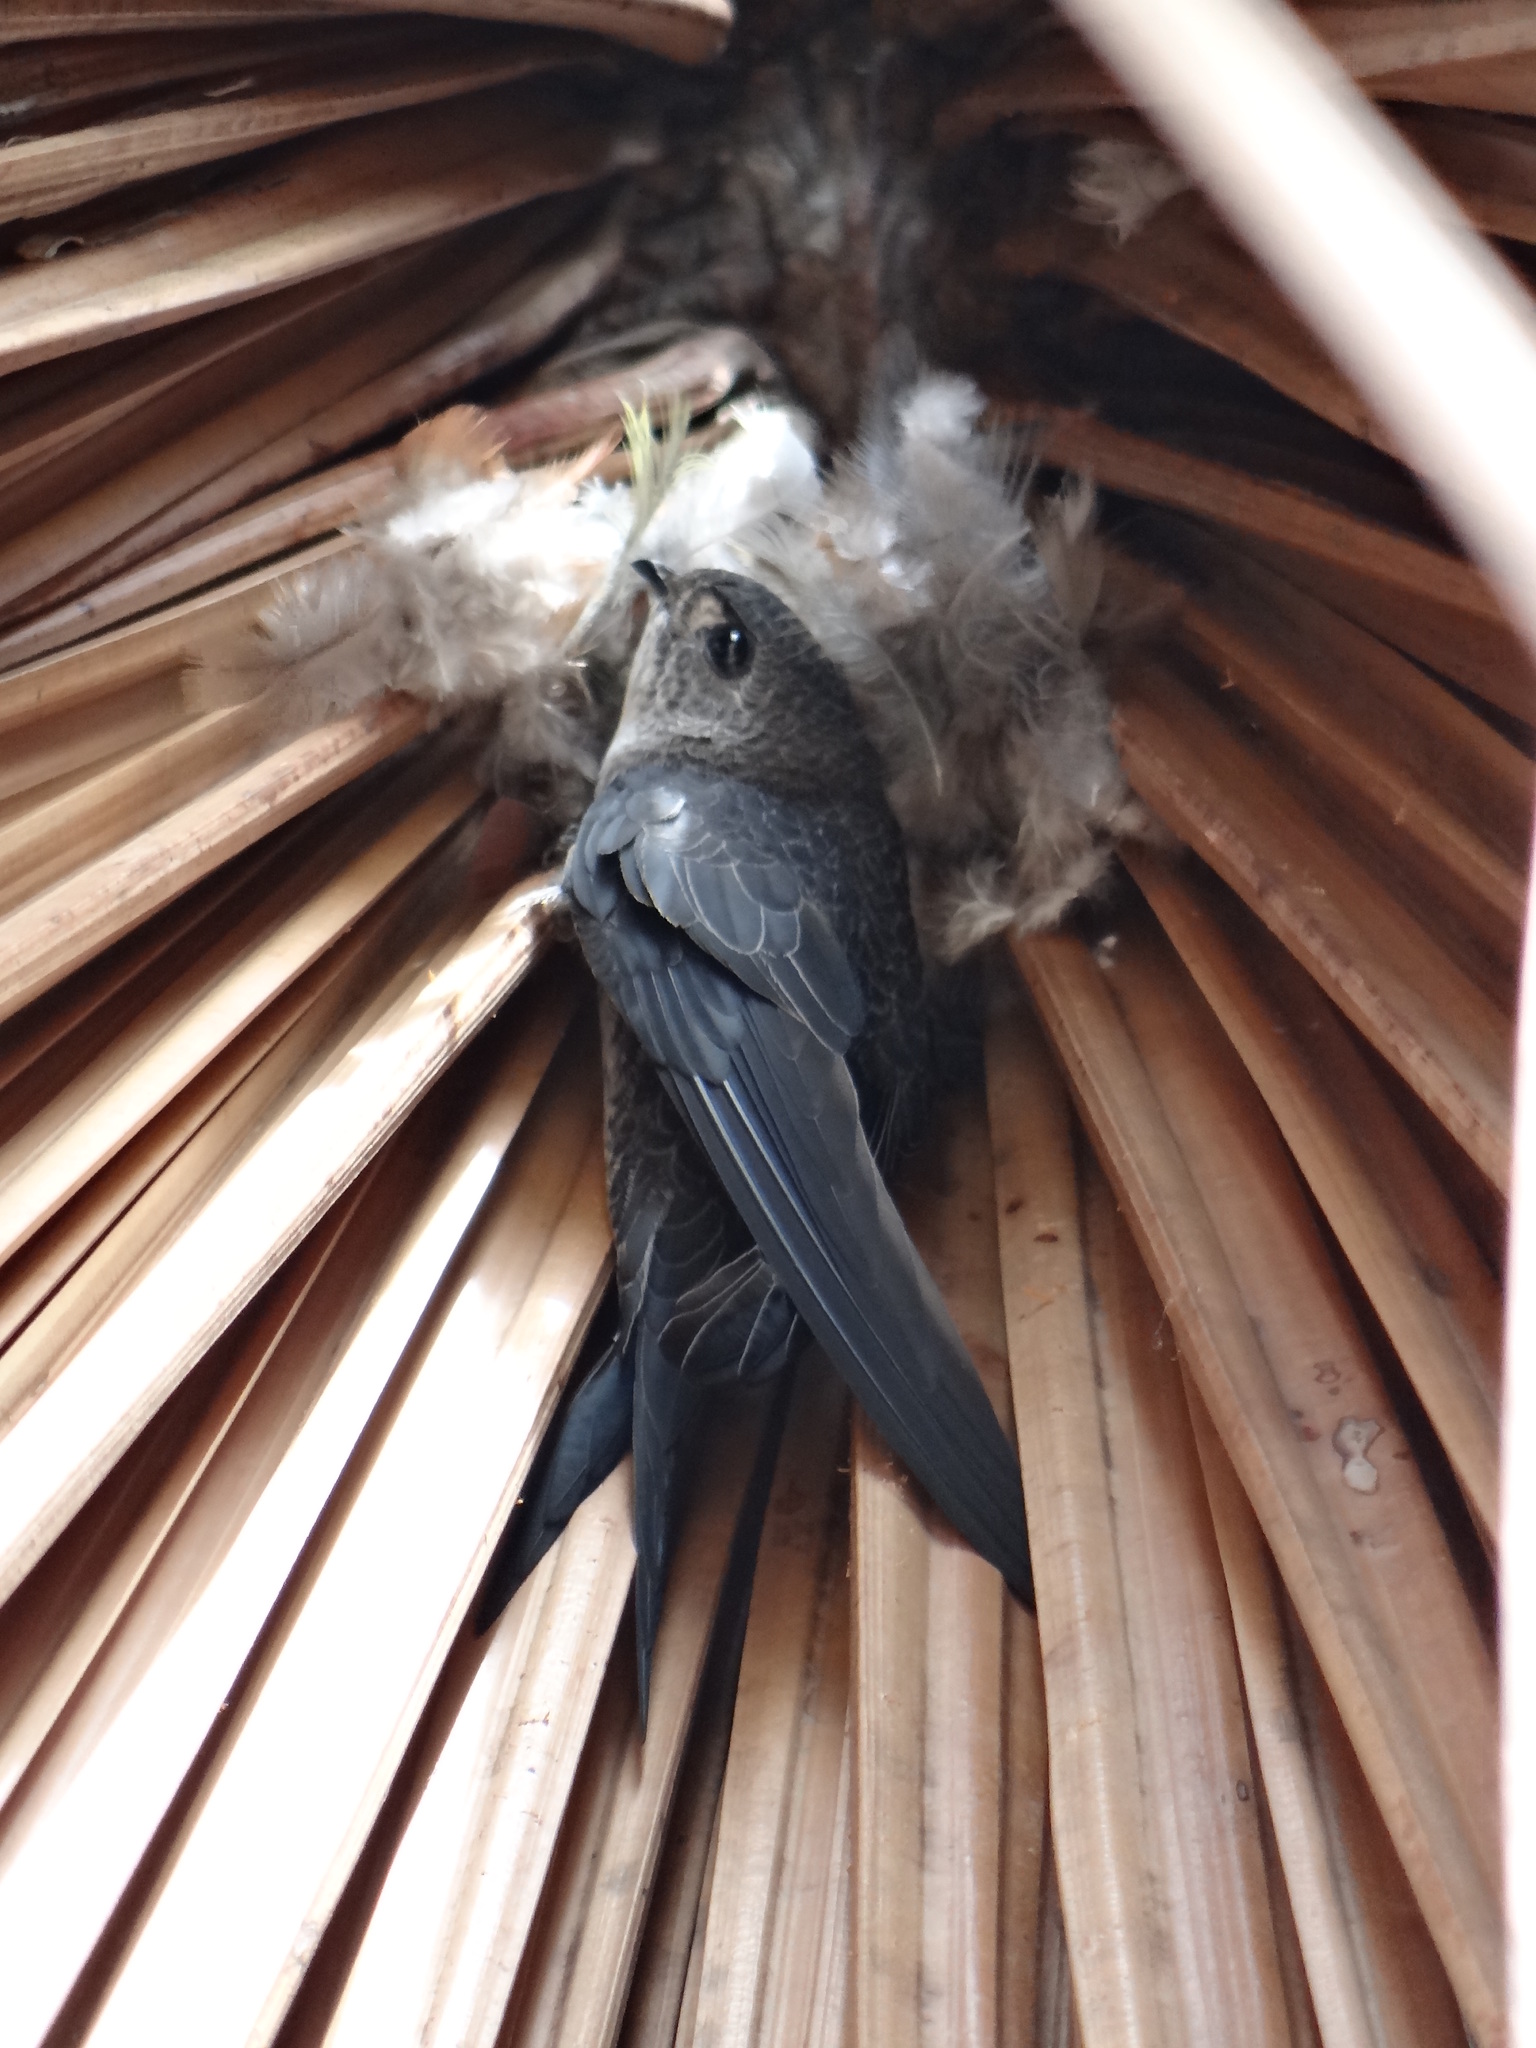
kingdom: Animalia
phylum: Chordata
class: Aves
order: Apodiformes
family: Apodidae
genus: Tachornis
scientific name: Tachornis squamata
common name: Neotropical palm swift
